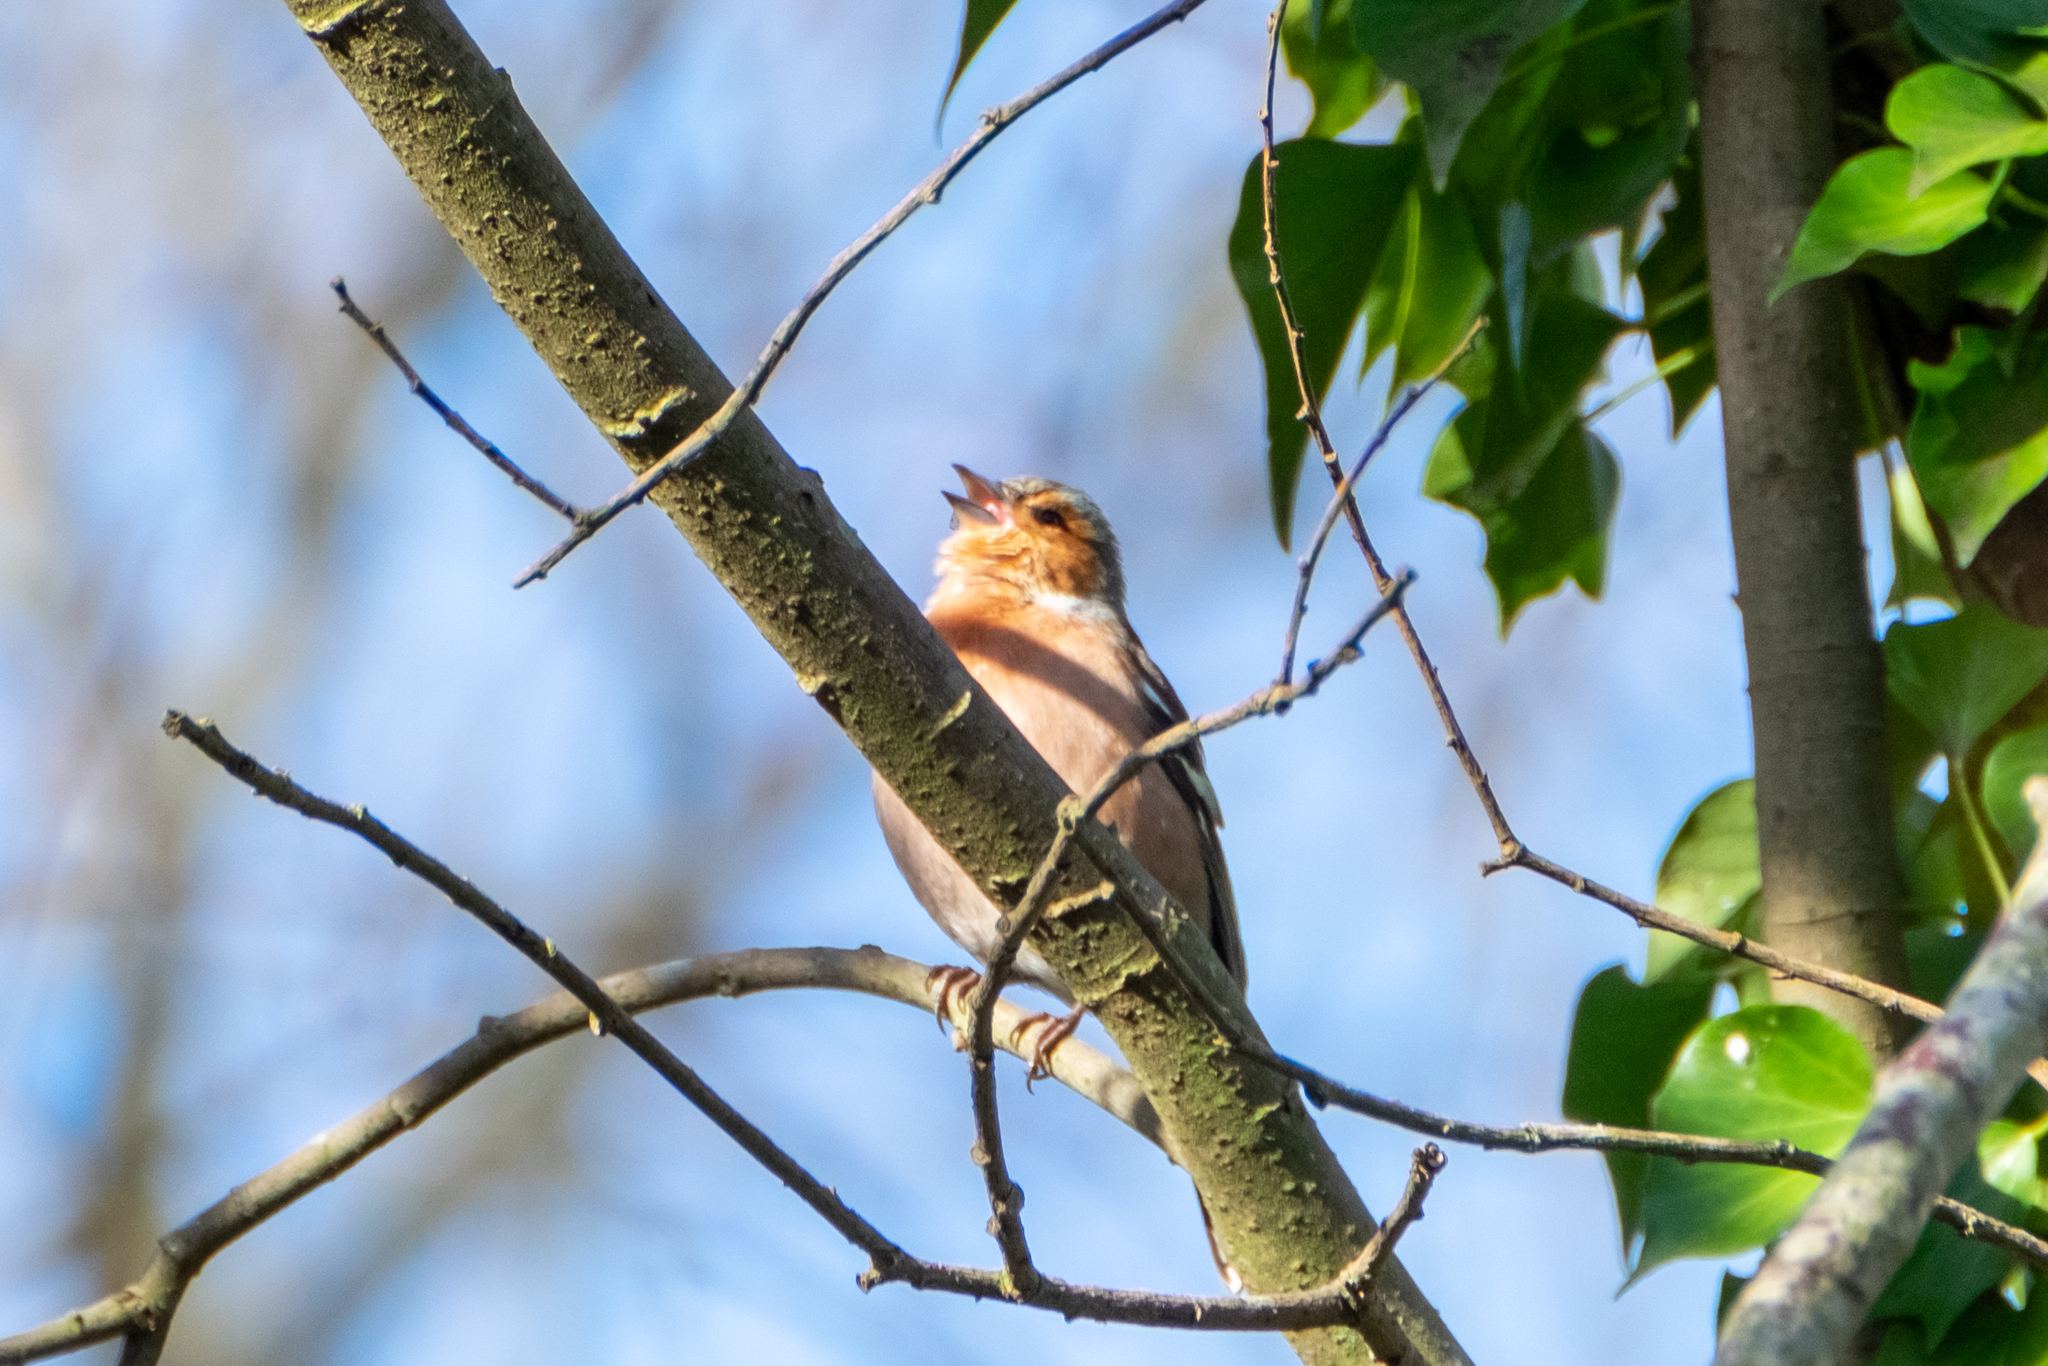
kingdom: Animalia
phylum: Chordata
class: Aves
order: Passeriformes
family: Fringillidae
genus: Fringilla
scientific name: Fringilla coelebs
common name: Common chaffinch
